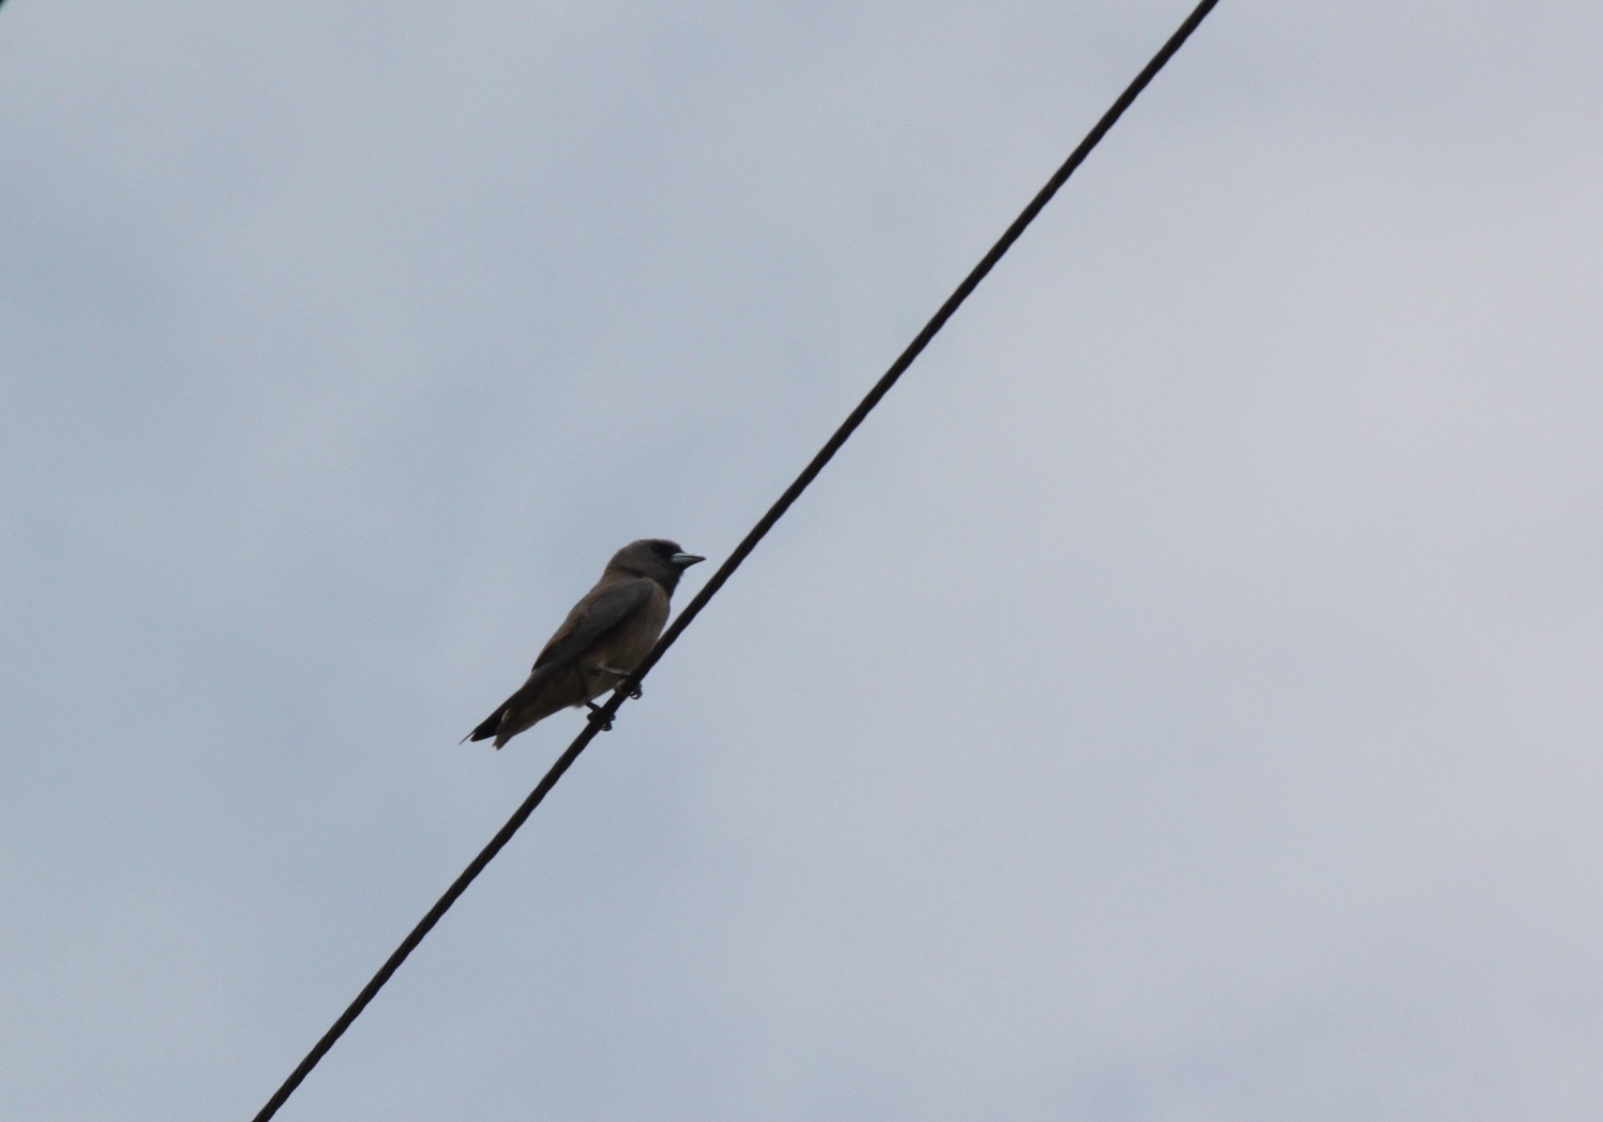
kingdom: Animalia
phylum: Chordata
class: Aves
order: Passeriformes
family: Artamidae
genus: Artamus
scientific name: Artamus fuscus
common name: Ashy woodswallow
